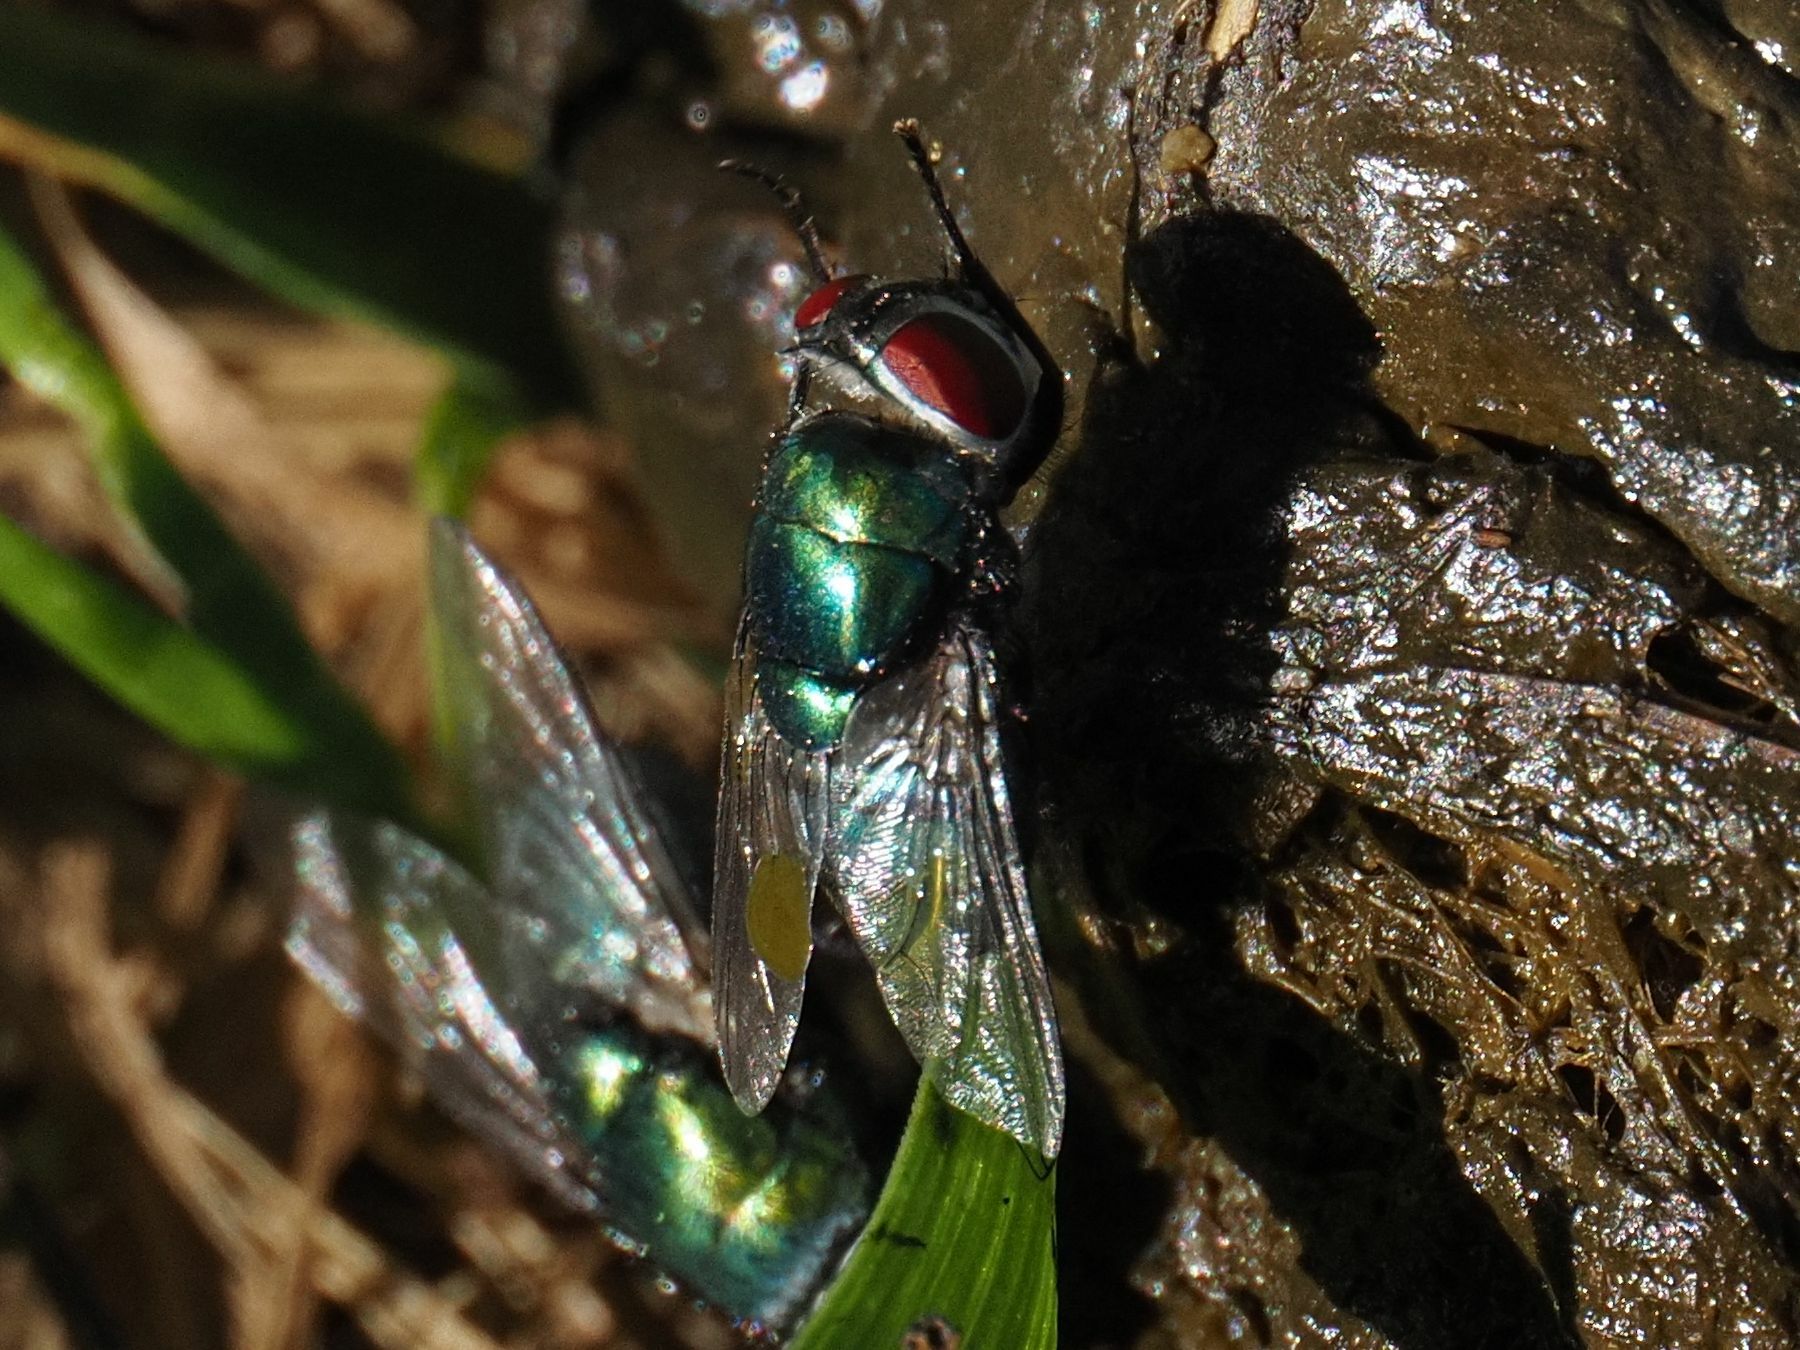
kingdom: Animalia
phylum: Arthropoda
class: Insecta
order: Diptera
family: Calliphoridae
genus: Chrysomya
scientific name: Chrysomya albiceps
